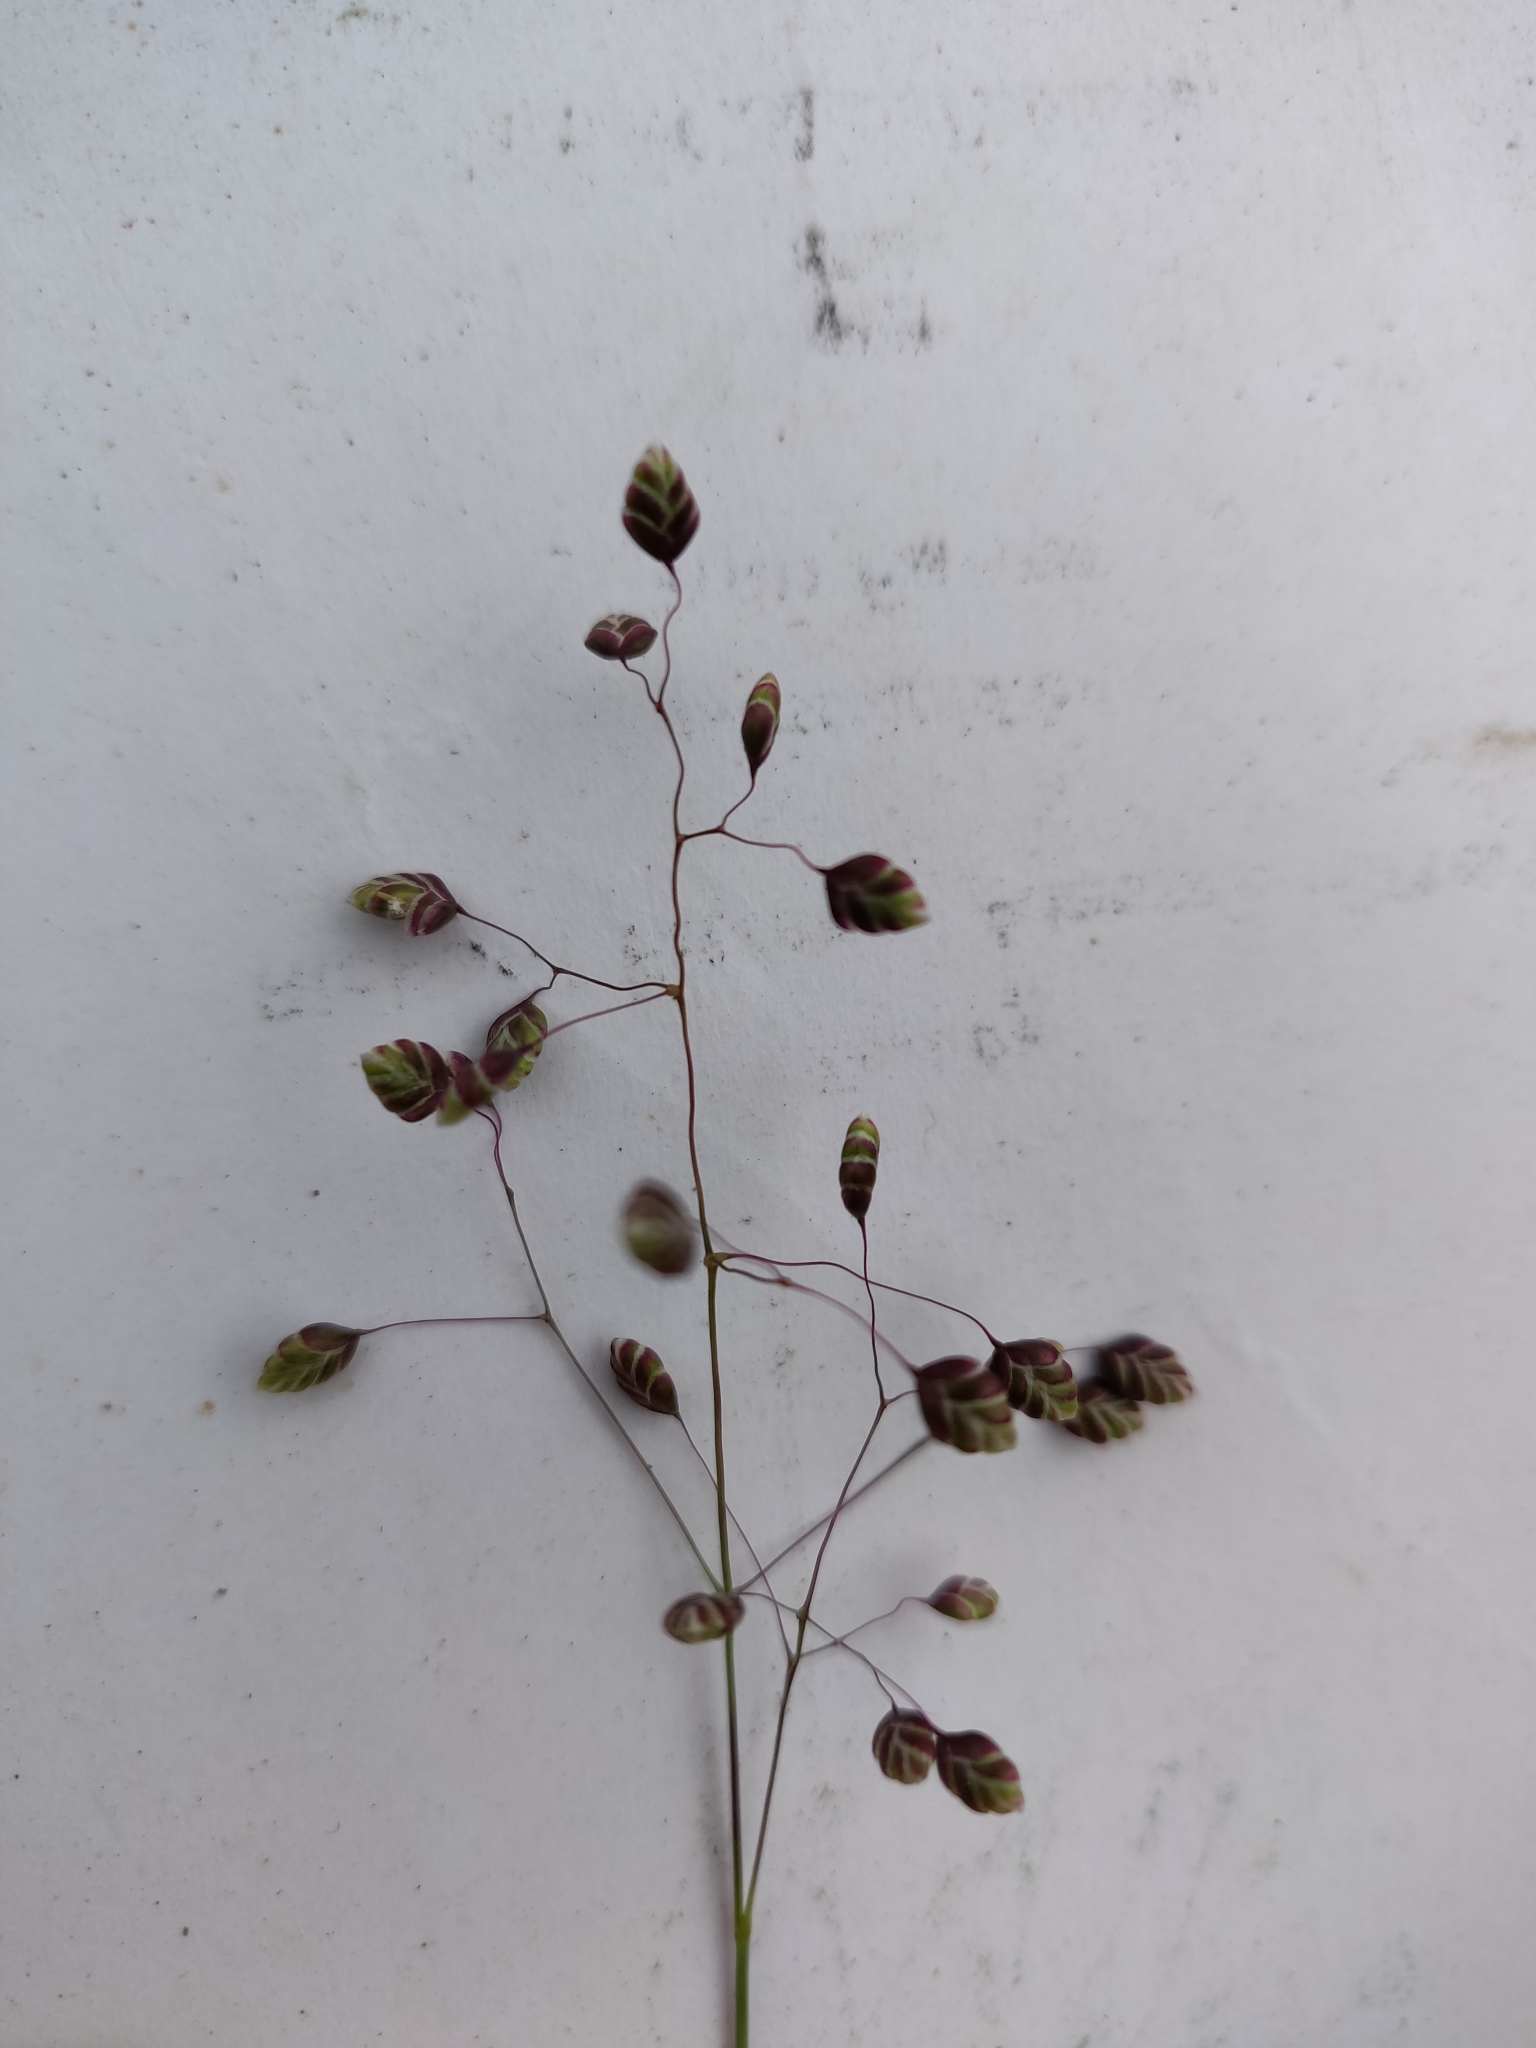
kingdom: Plantae
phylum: Tracheophyta
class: Liliopsida
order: Poales
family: Poaceae
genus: Briza
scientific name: Briza media
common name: Quaking grass
